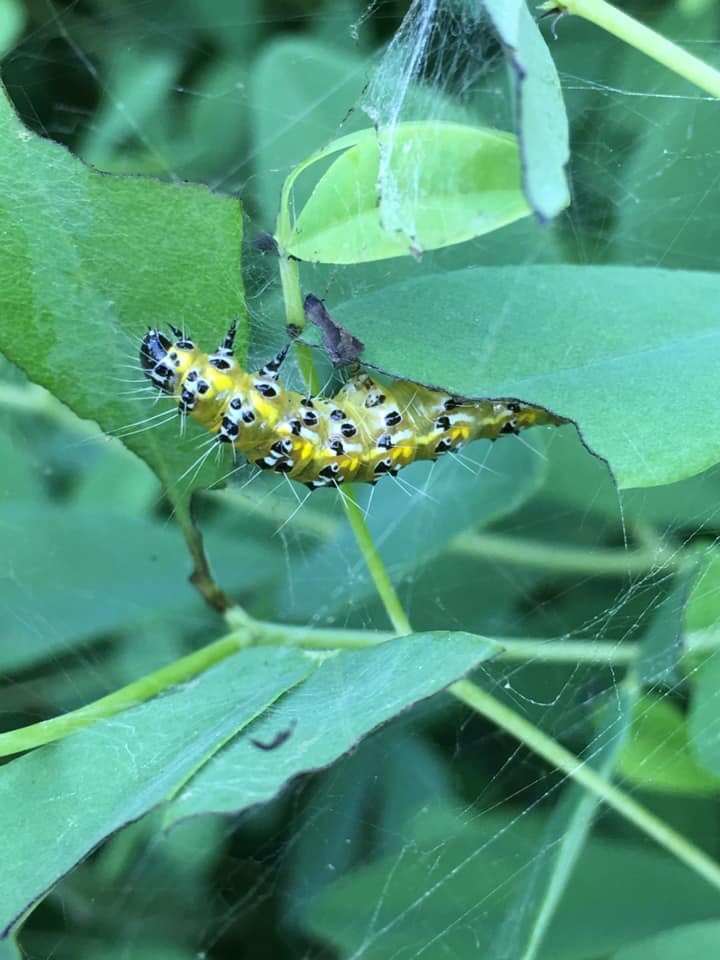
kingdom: Animalia
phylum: Arthropoda
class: Insecta
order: Lepidoptera
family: Crambidae
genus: Uresiphita
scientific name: Uresiphita reversalis
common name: Genista broom moth
